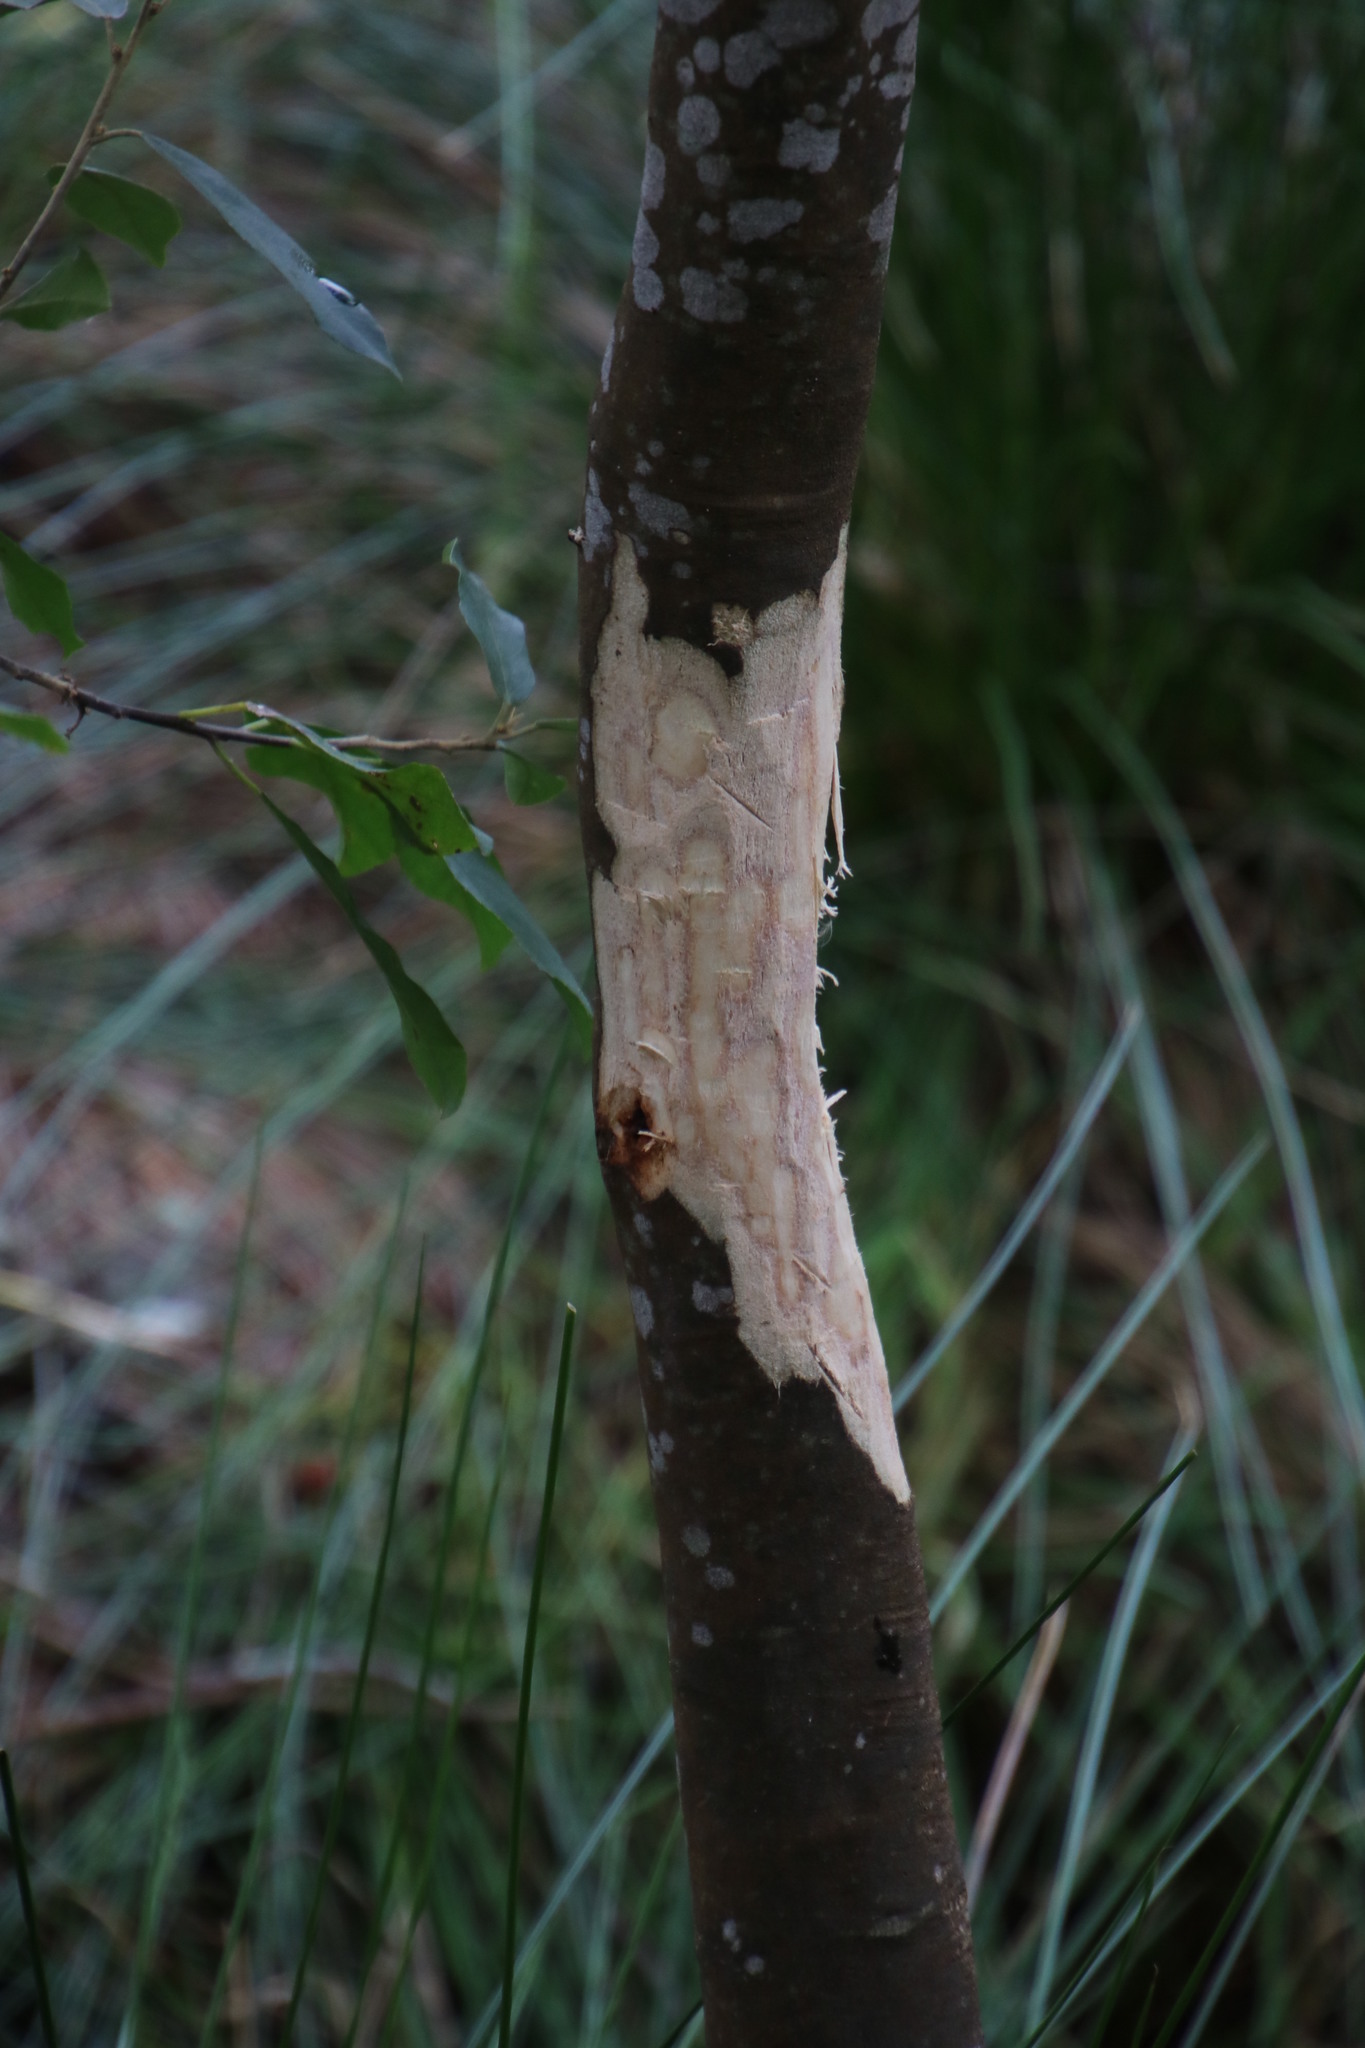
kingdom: Plantae
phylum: Tracheophyta
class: Magnoliopsida
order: Malpighiales
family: Achariaceae
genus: Kiggelaria
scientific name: Kiggelaria africana
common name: Wild peach
